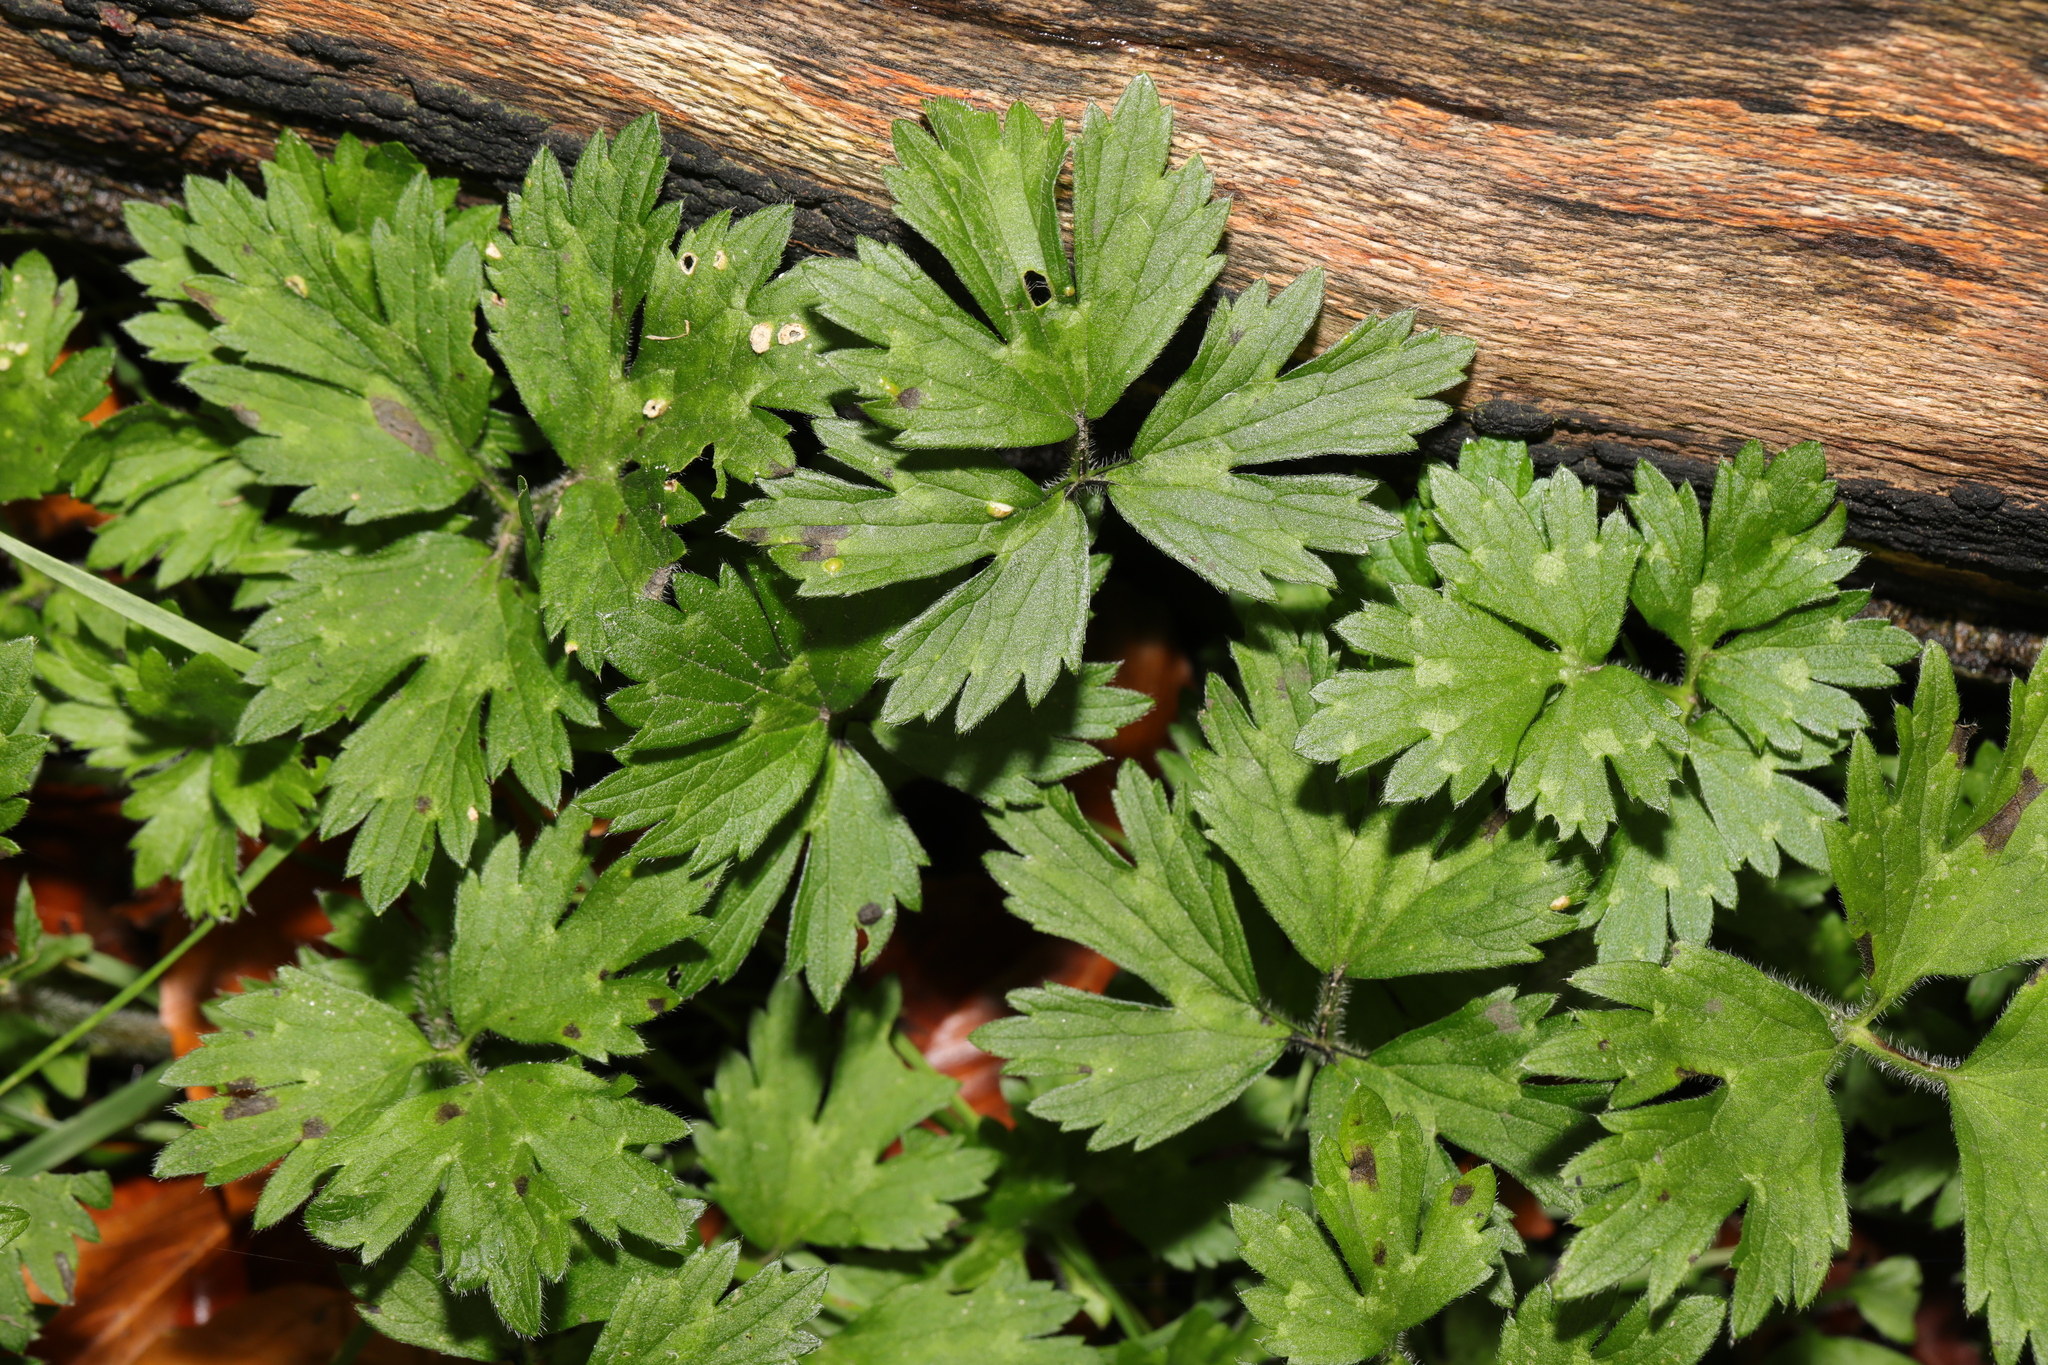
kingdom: Plantae
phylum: Tracheophyta
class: Magnoliopsida
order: Ranunculales
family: Ranunculaceae
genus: Ranunculus
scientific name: Ranunculus repens
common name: Creeping buttercup
